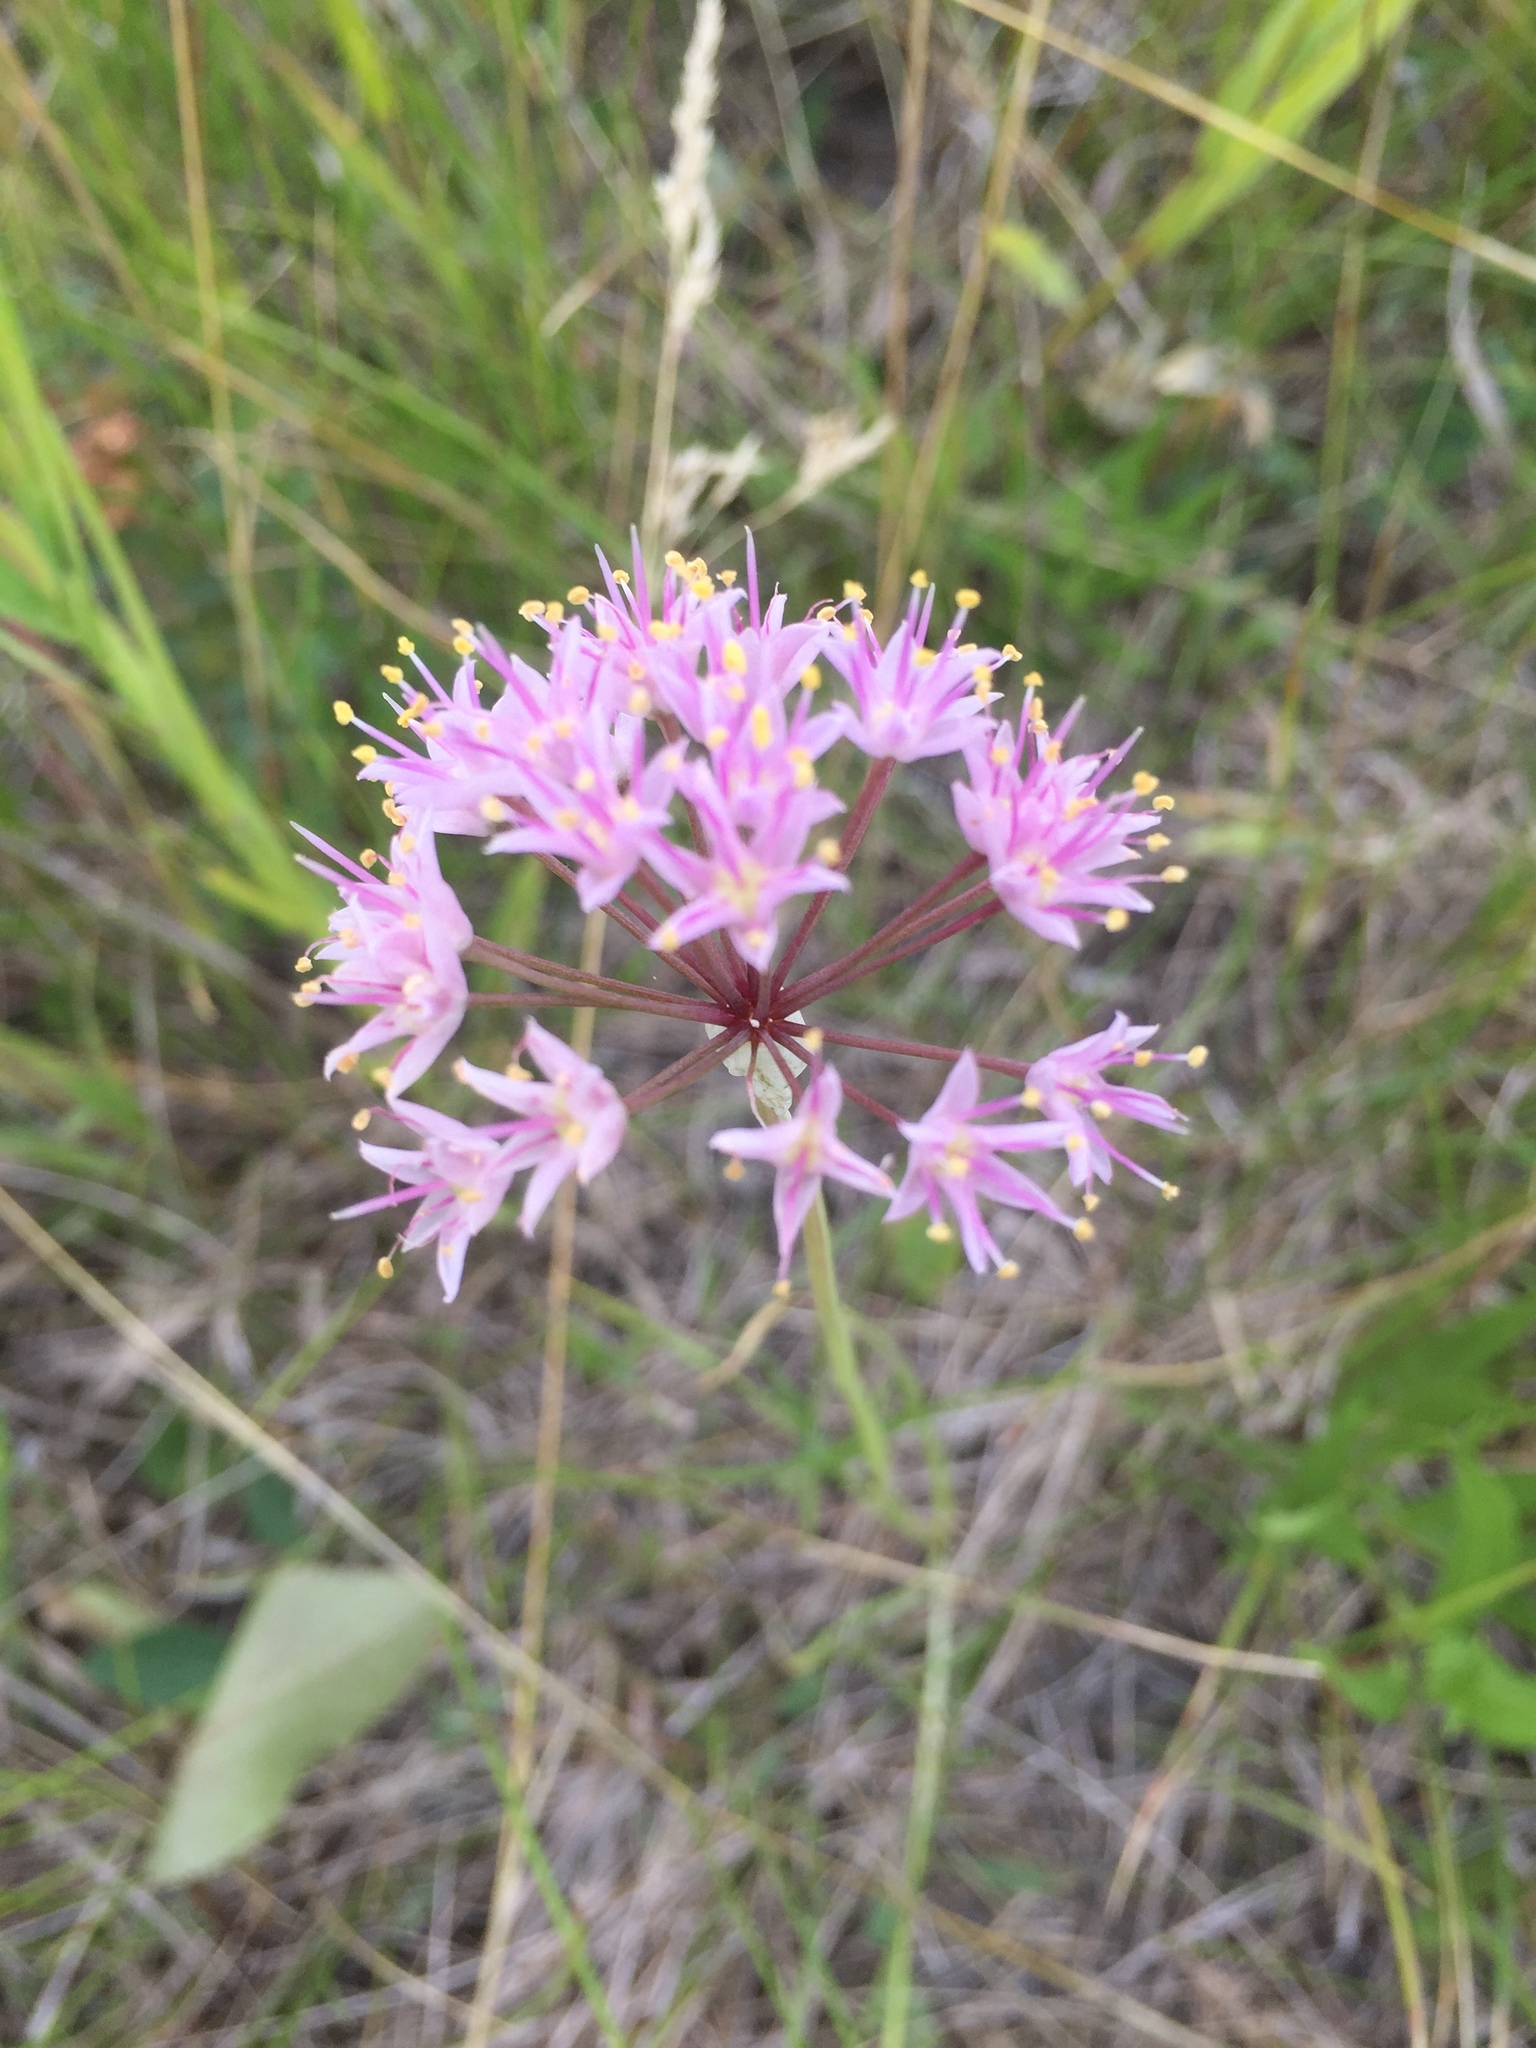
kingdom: Plantae
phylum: Tracheophyta
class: Liliopsida
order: Asparagales
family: Amaryllidaceae
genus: Allium
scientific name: Allium stellatum
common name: Autumn onion
